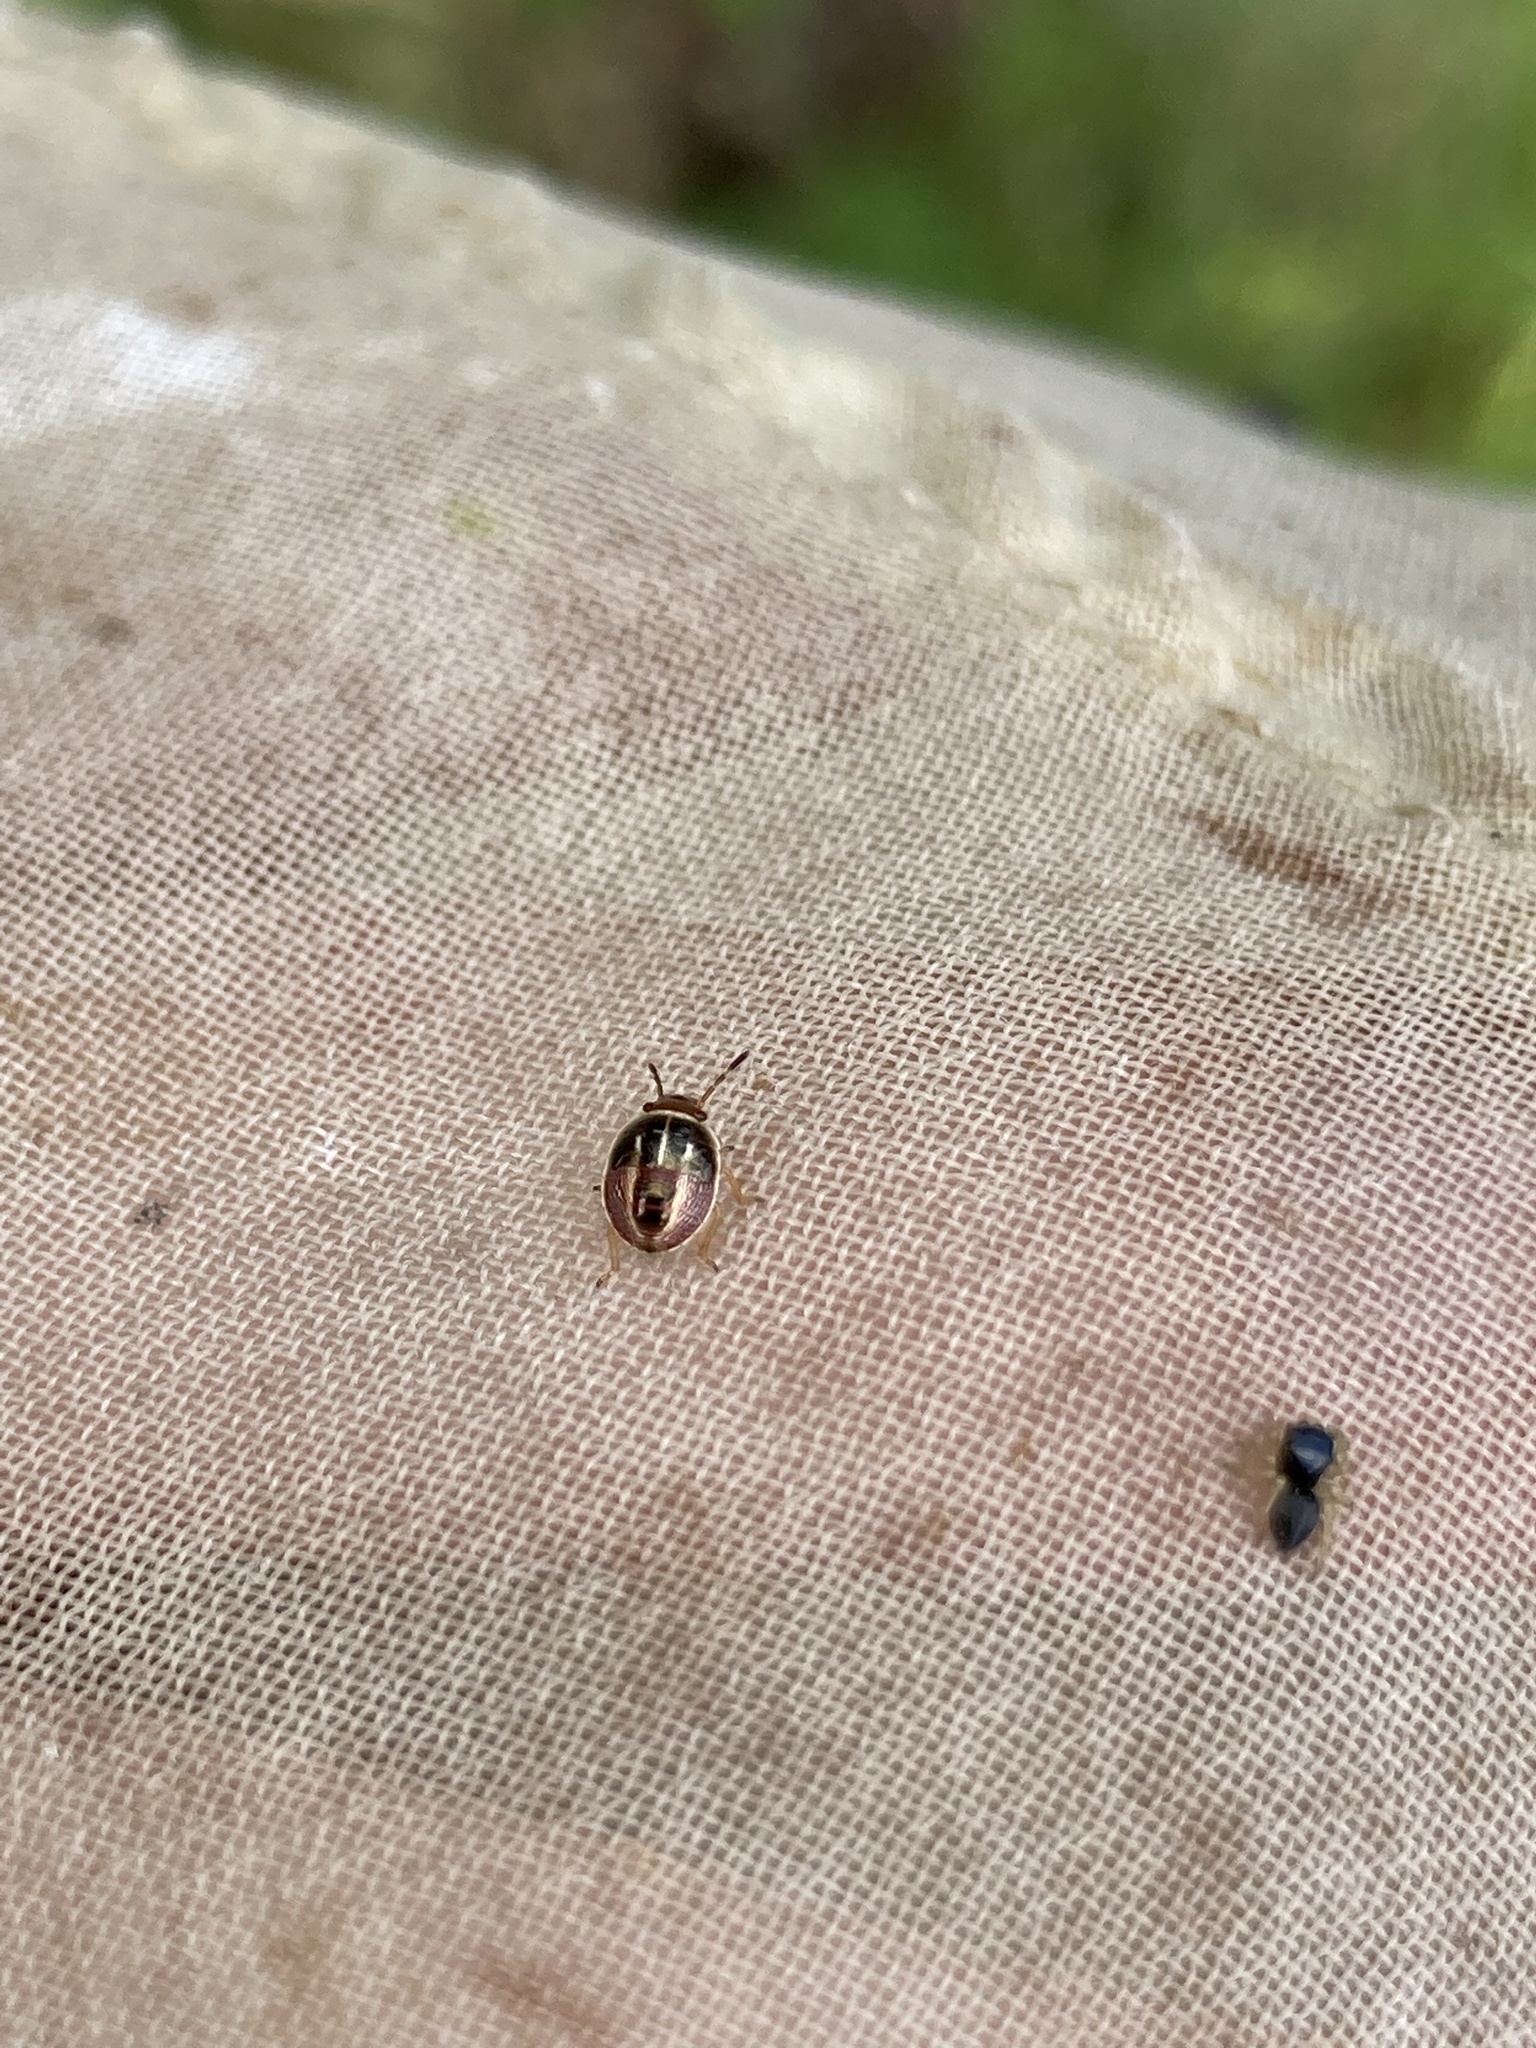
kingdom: Animalia
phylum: Arthropoda
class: Insecta
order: Hemiptera
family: Pentatomidae
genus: Mormidea
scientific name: Mormidea lugens
